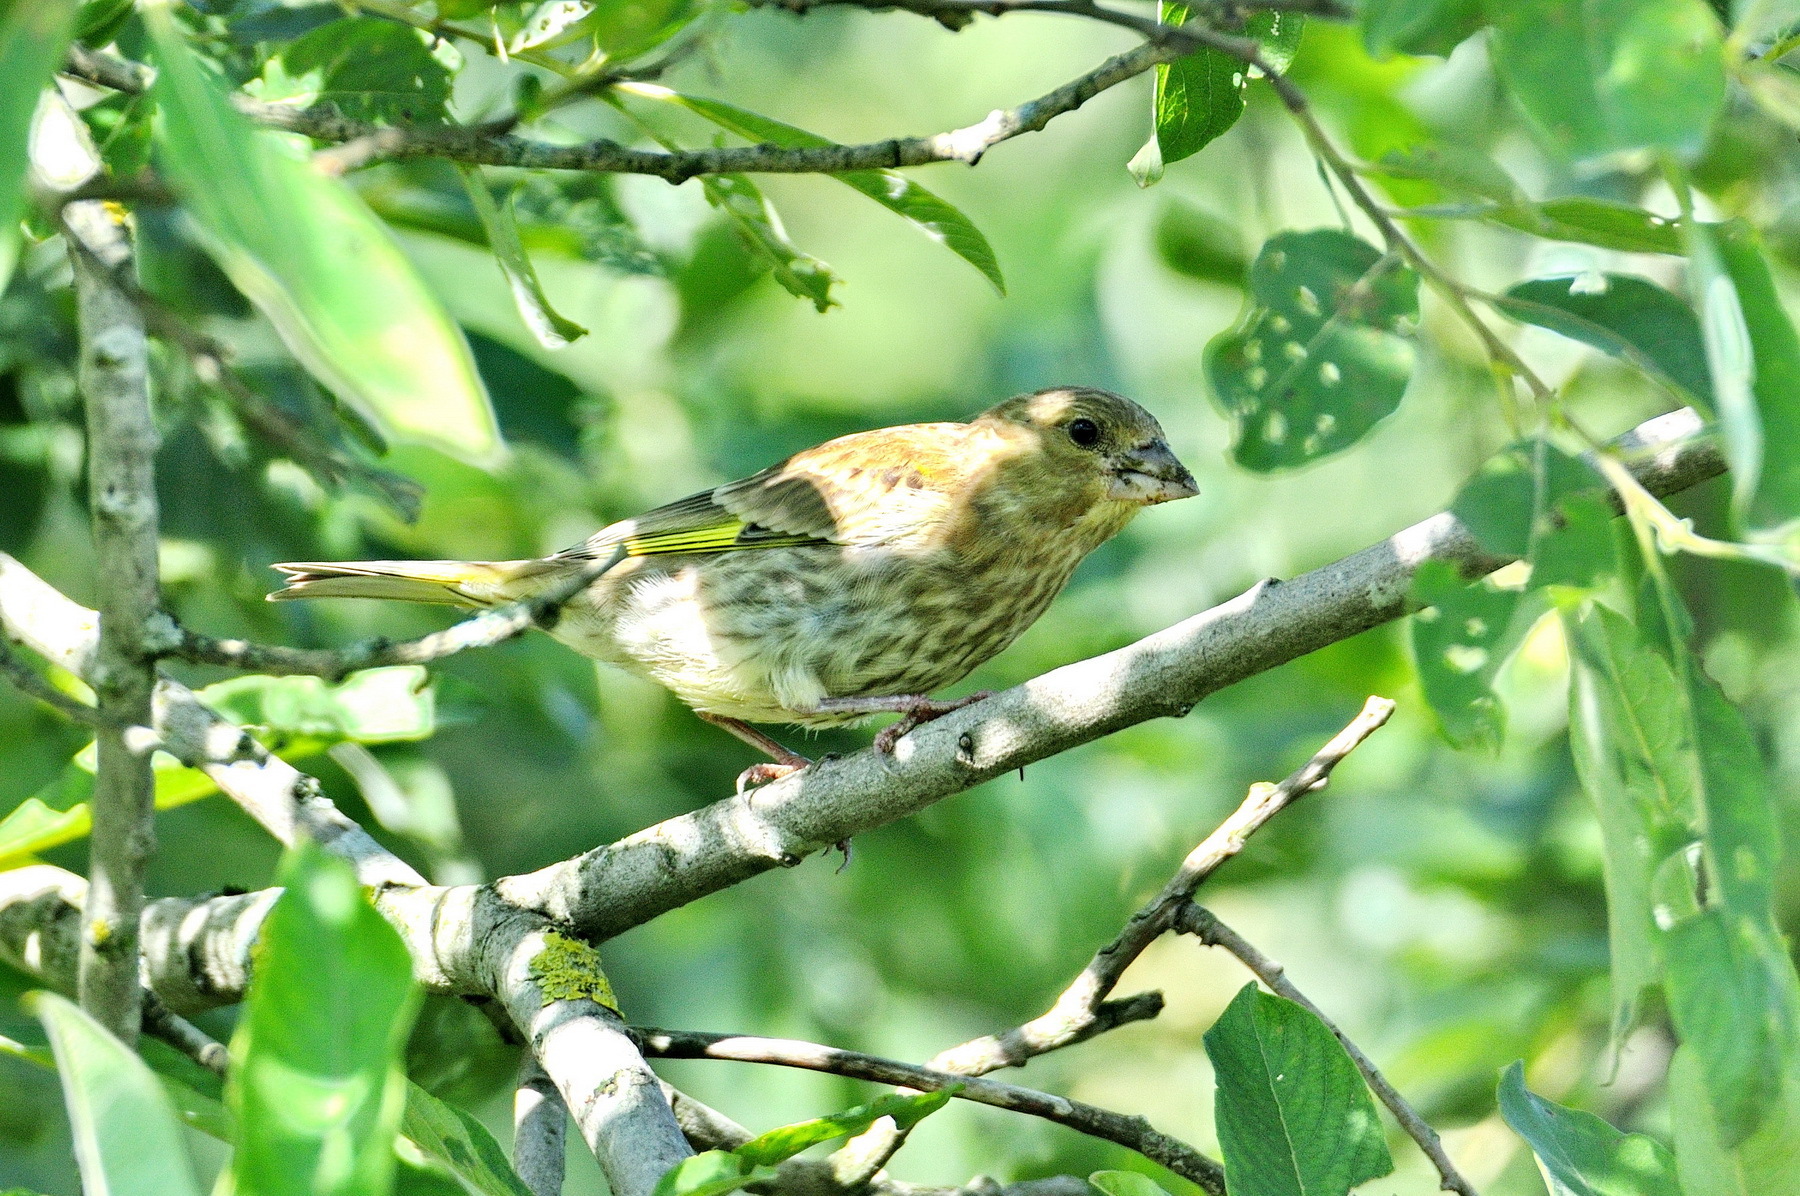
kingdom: Plantae
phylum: Tracheophyta
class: Liliopsida
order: Poales
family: Poaceae
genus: Chloris
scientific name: Chloris chloris
